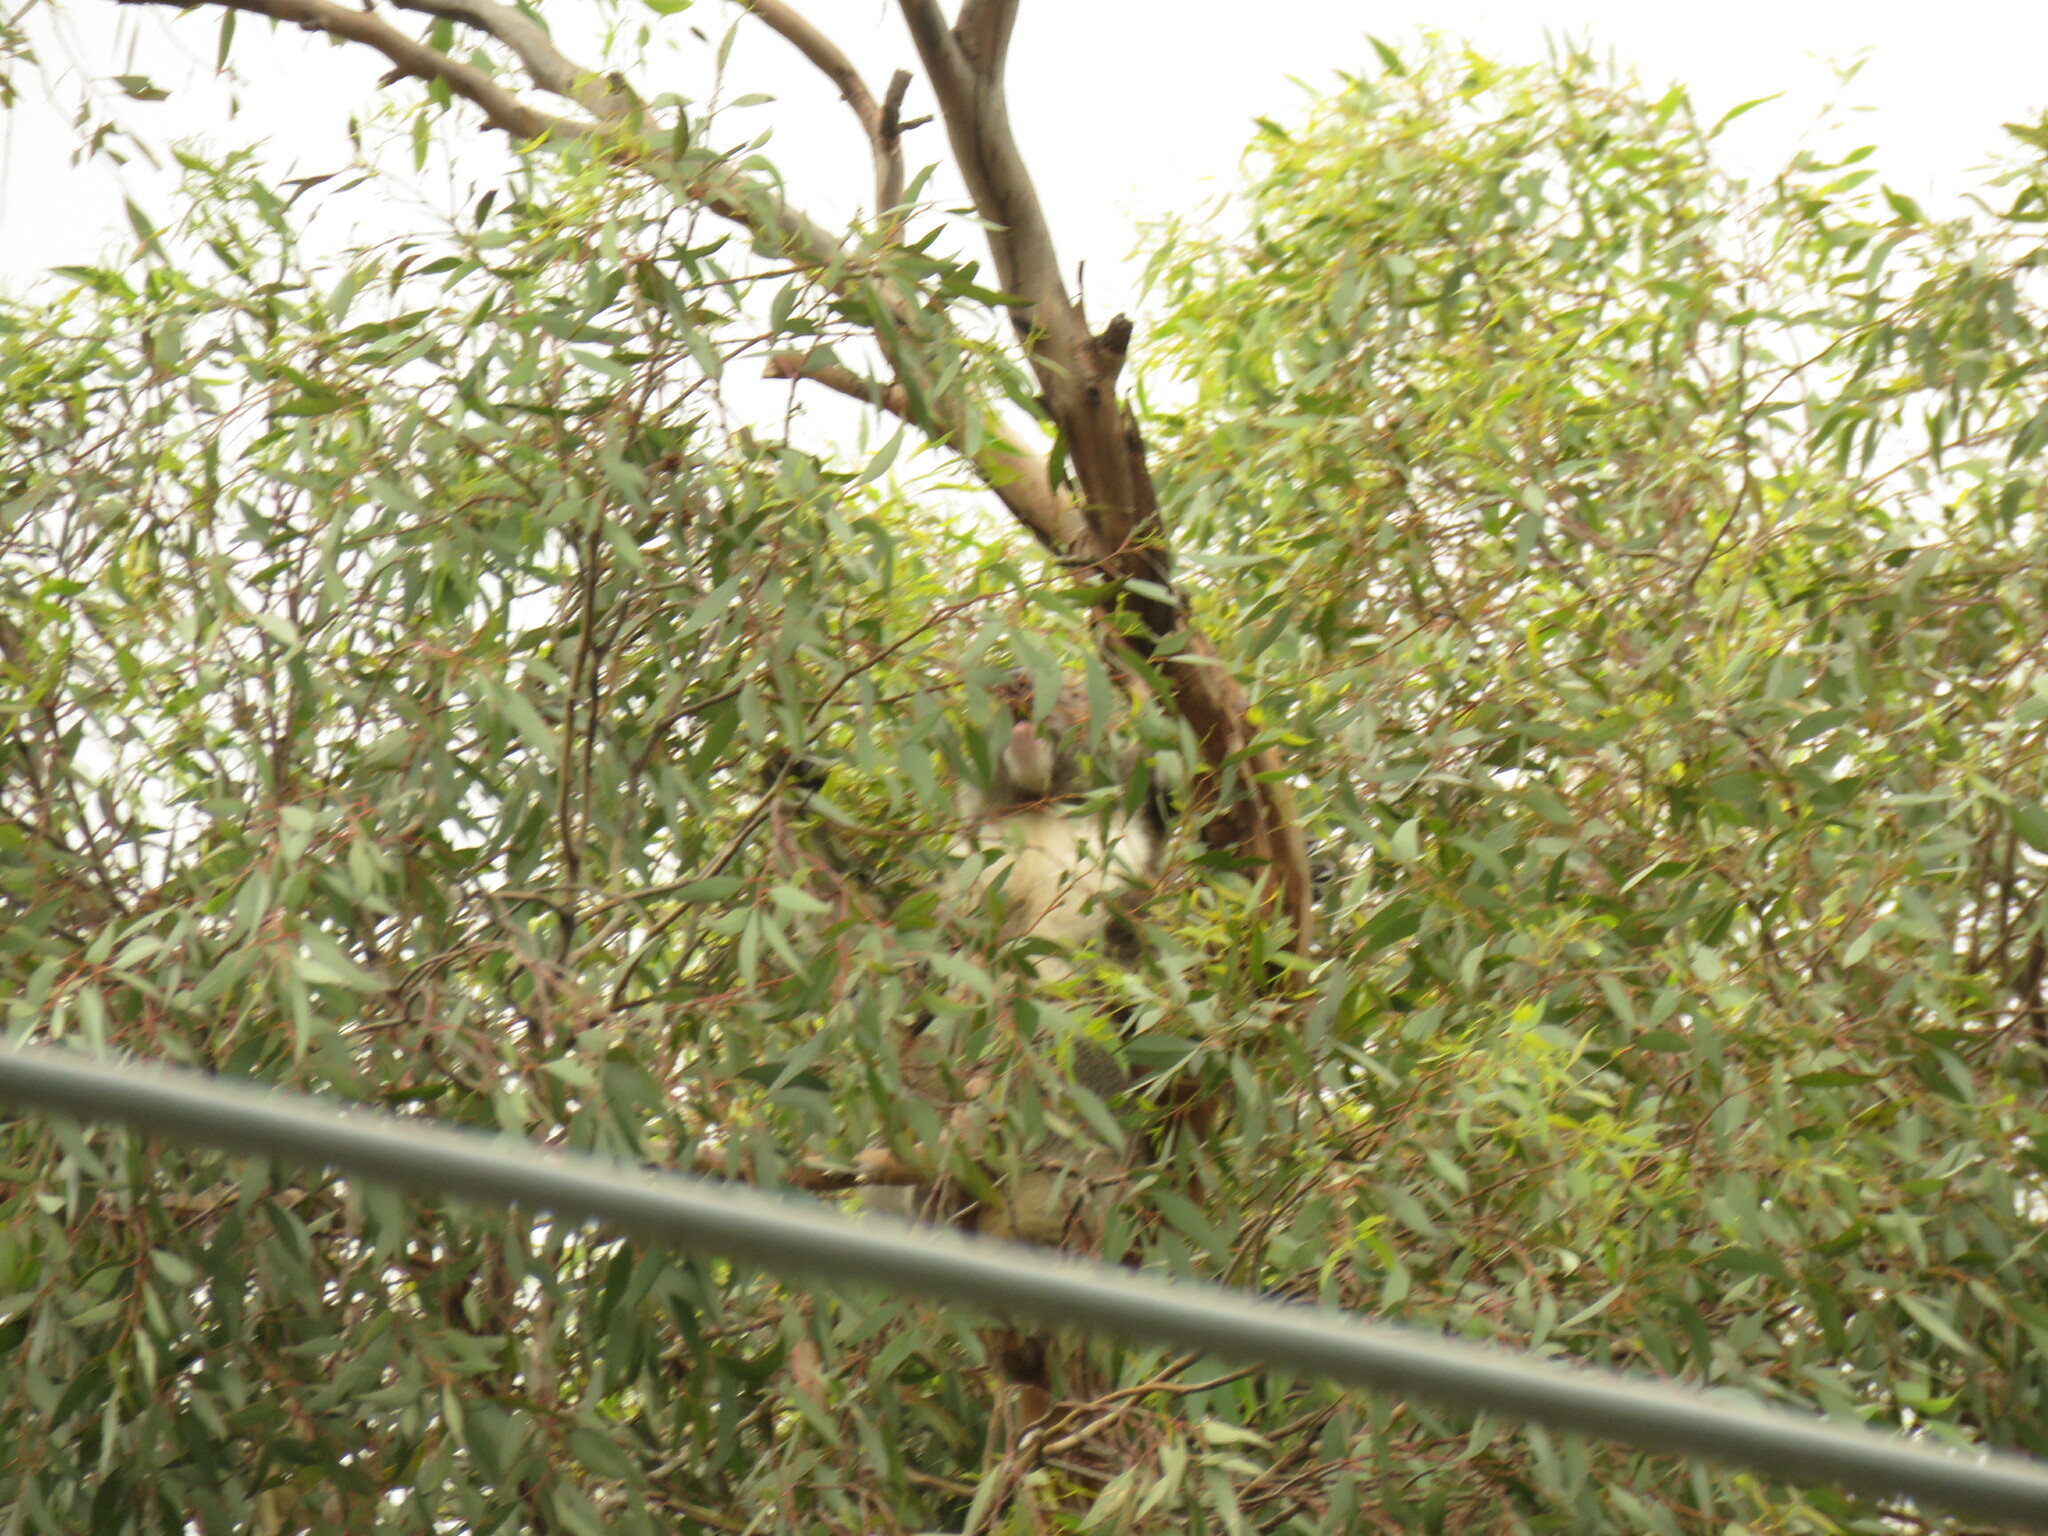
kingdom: Animalia
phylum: Chordata
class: Mammalia
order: Diprotodontia
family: Phascolarctidae
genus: Phascolarctos
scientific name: Phascolarctos cinereus
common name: Koala
